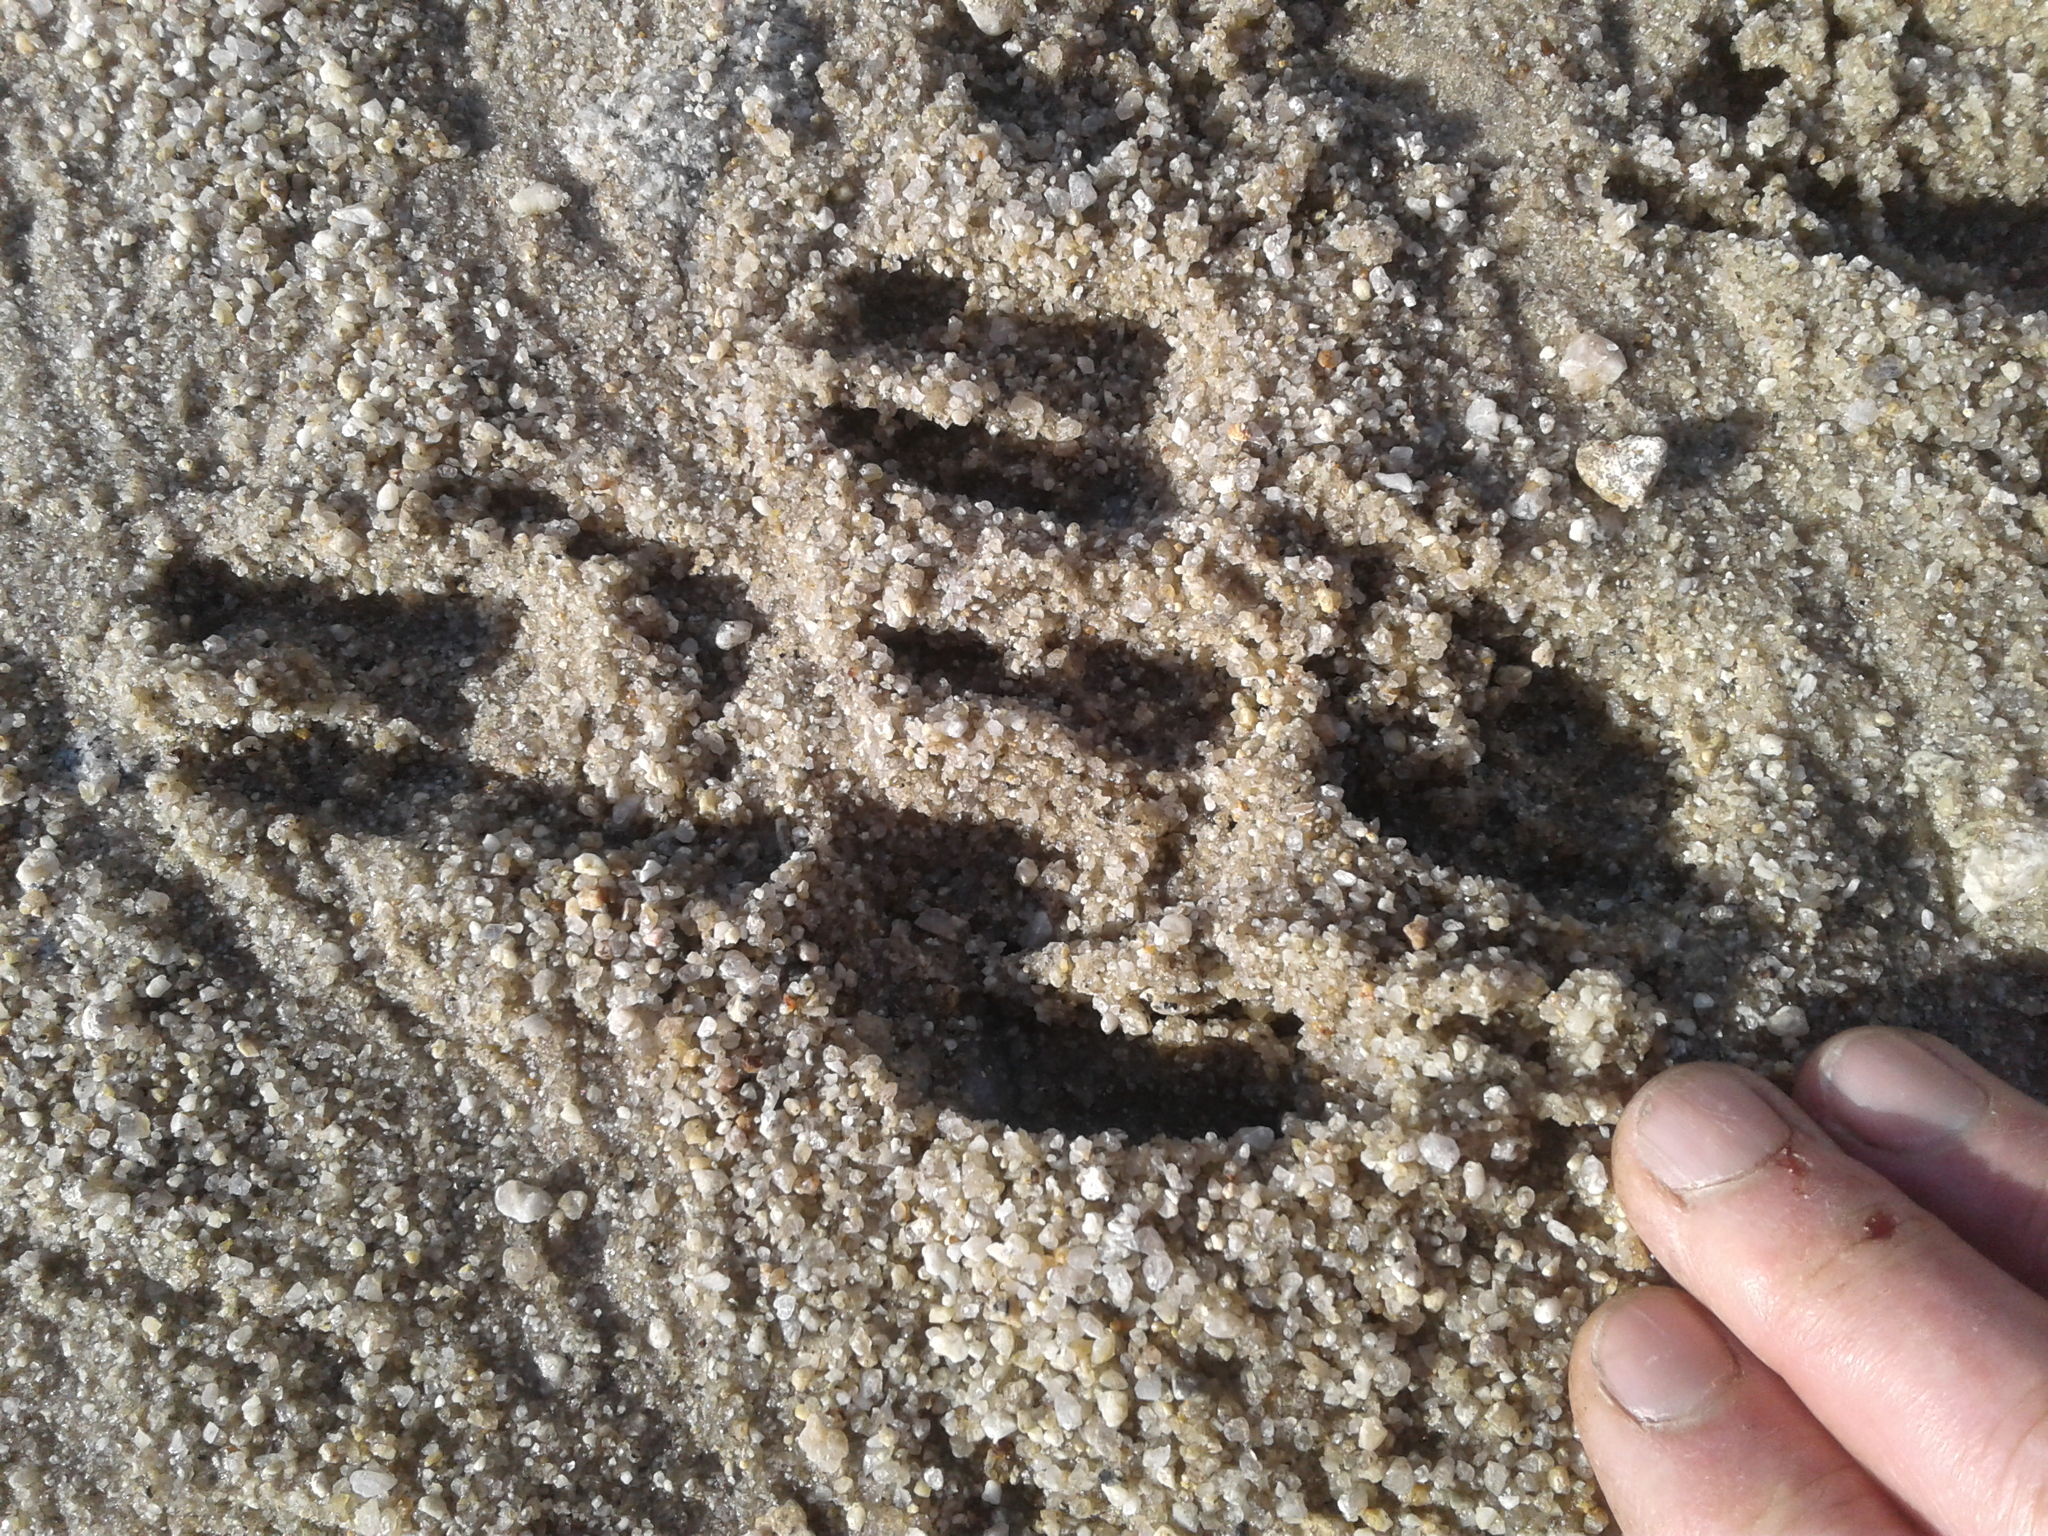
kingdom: Animalia
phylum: Chordata
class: Mammalia
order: Artiodactyla
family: Bovidae
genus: Capra
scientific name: Capra hircus
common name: Domestic goat
